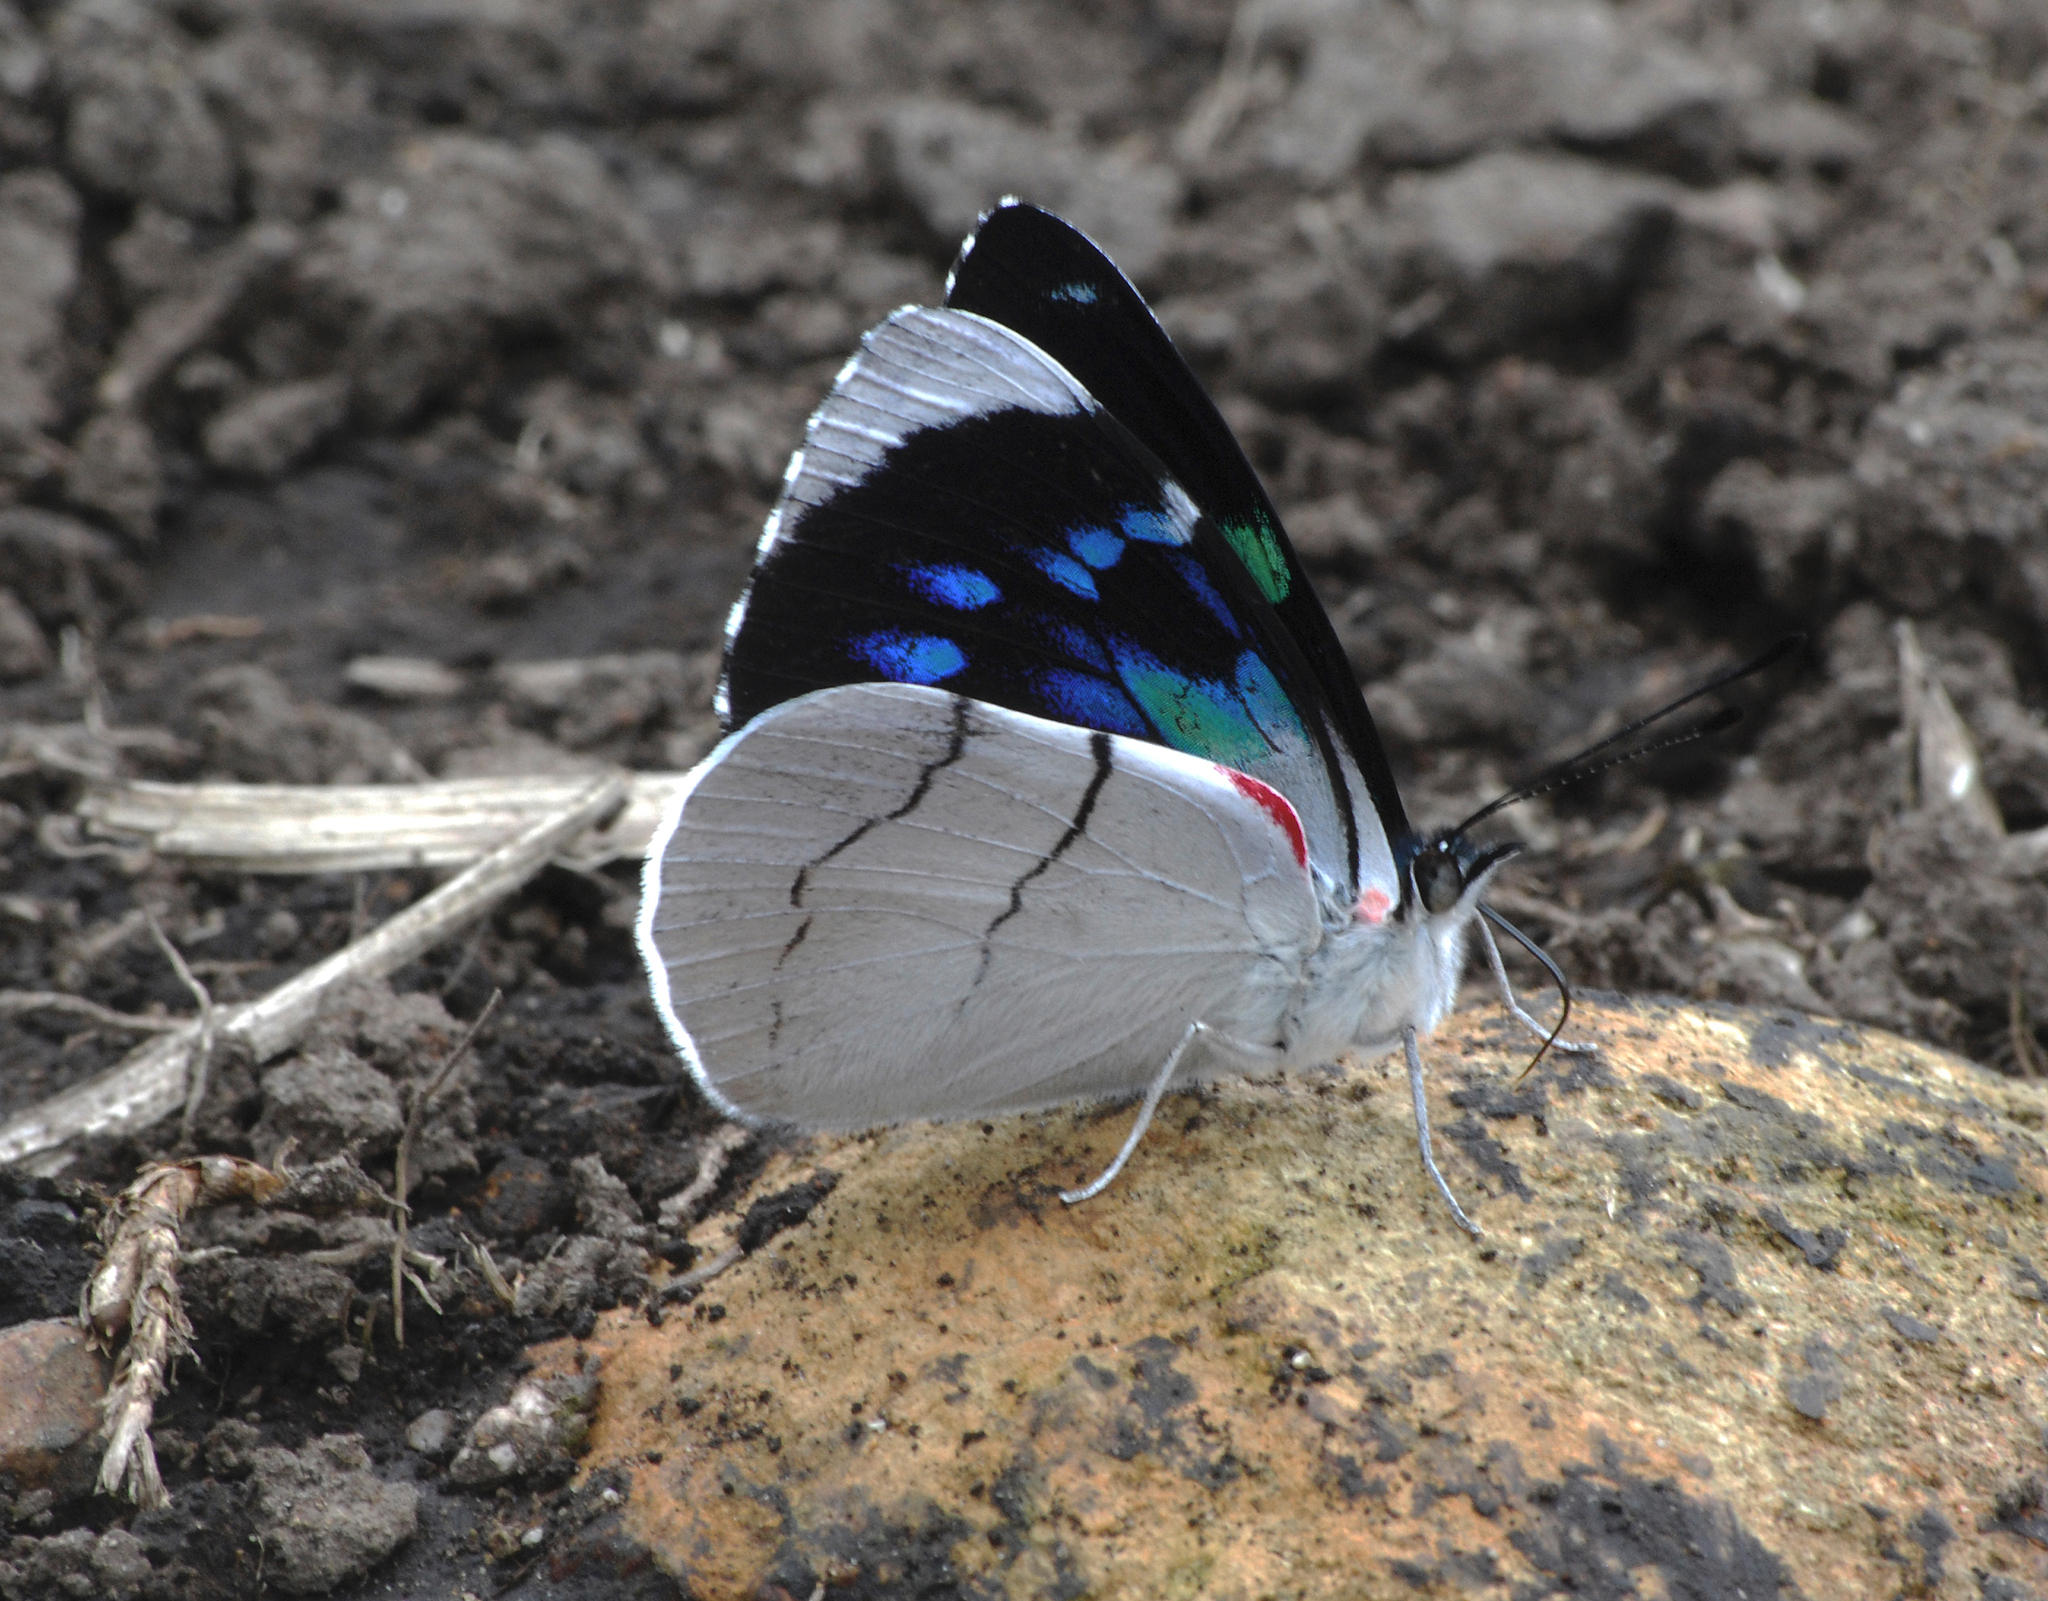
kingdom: Animalia
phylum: Arthropoda
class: Insecta
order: Lepidoptera
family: Nymphalidae
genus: Perisama
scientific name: Perisama bomplandii
